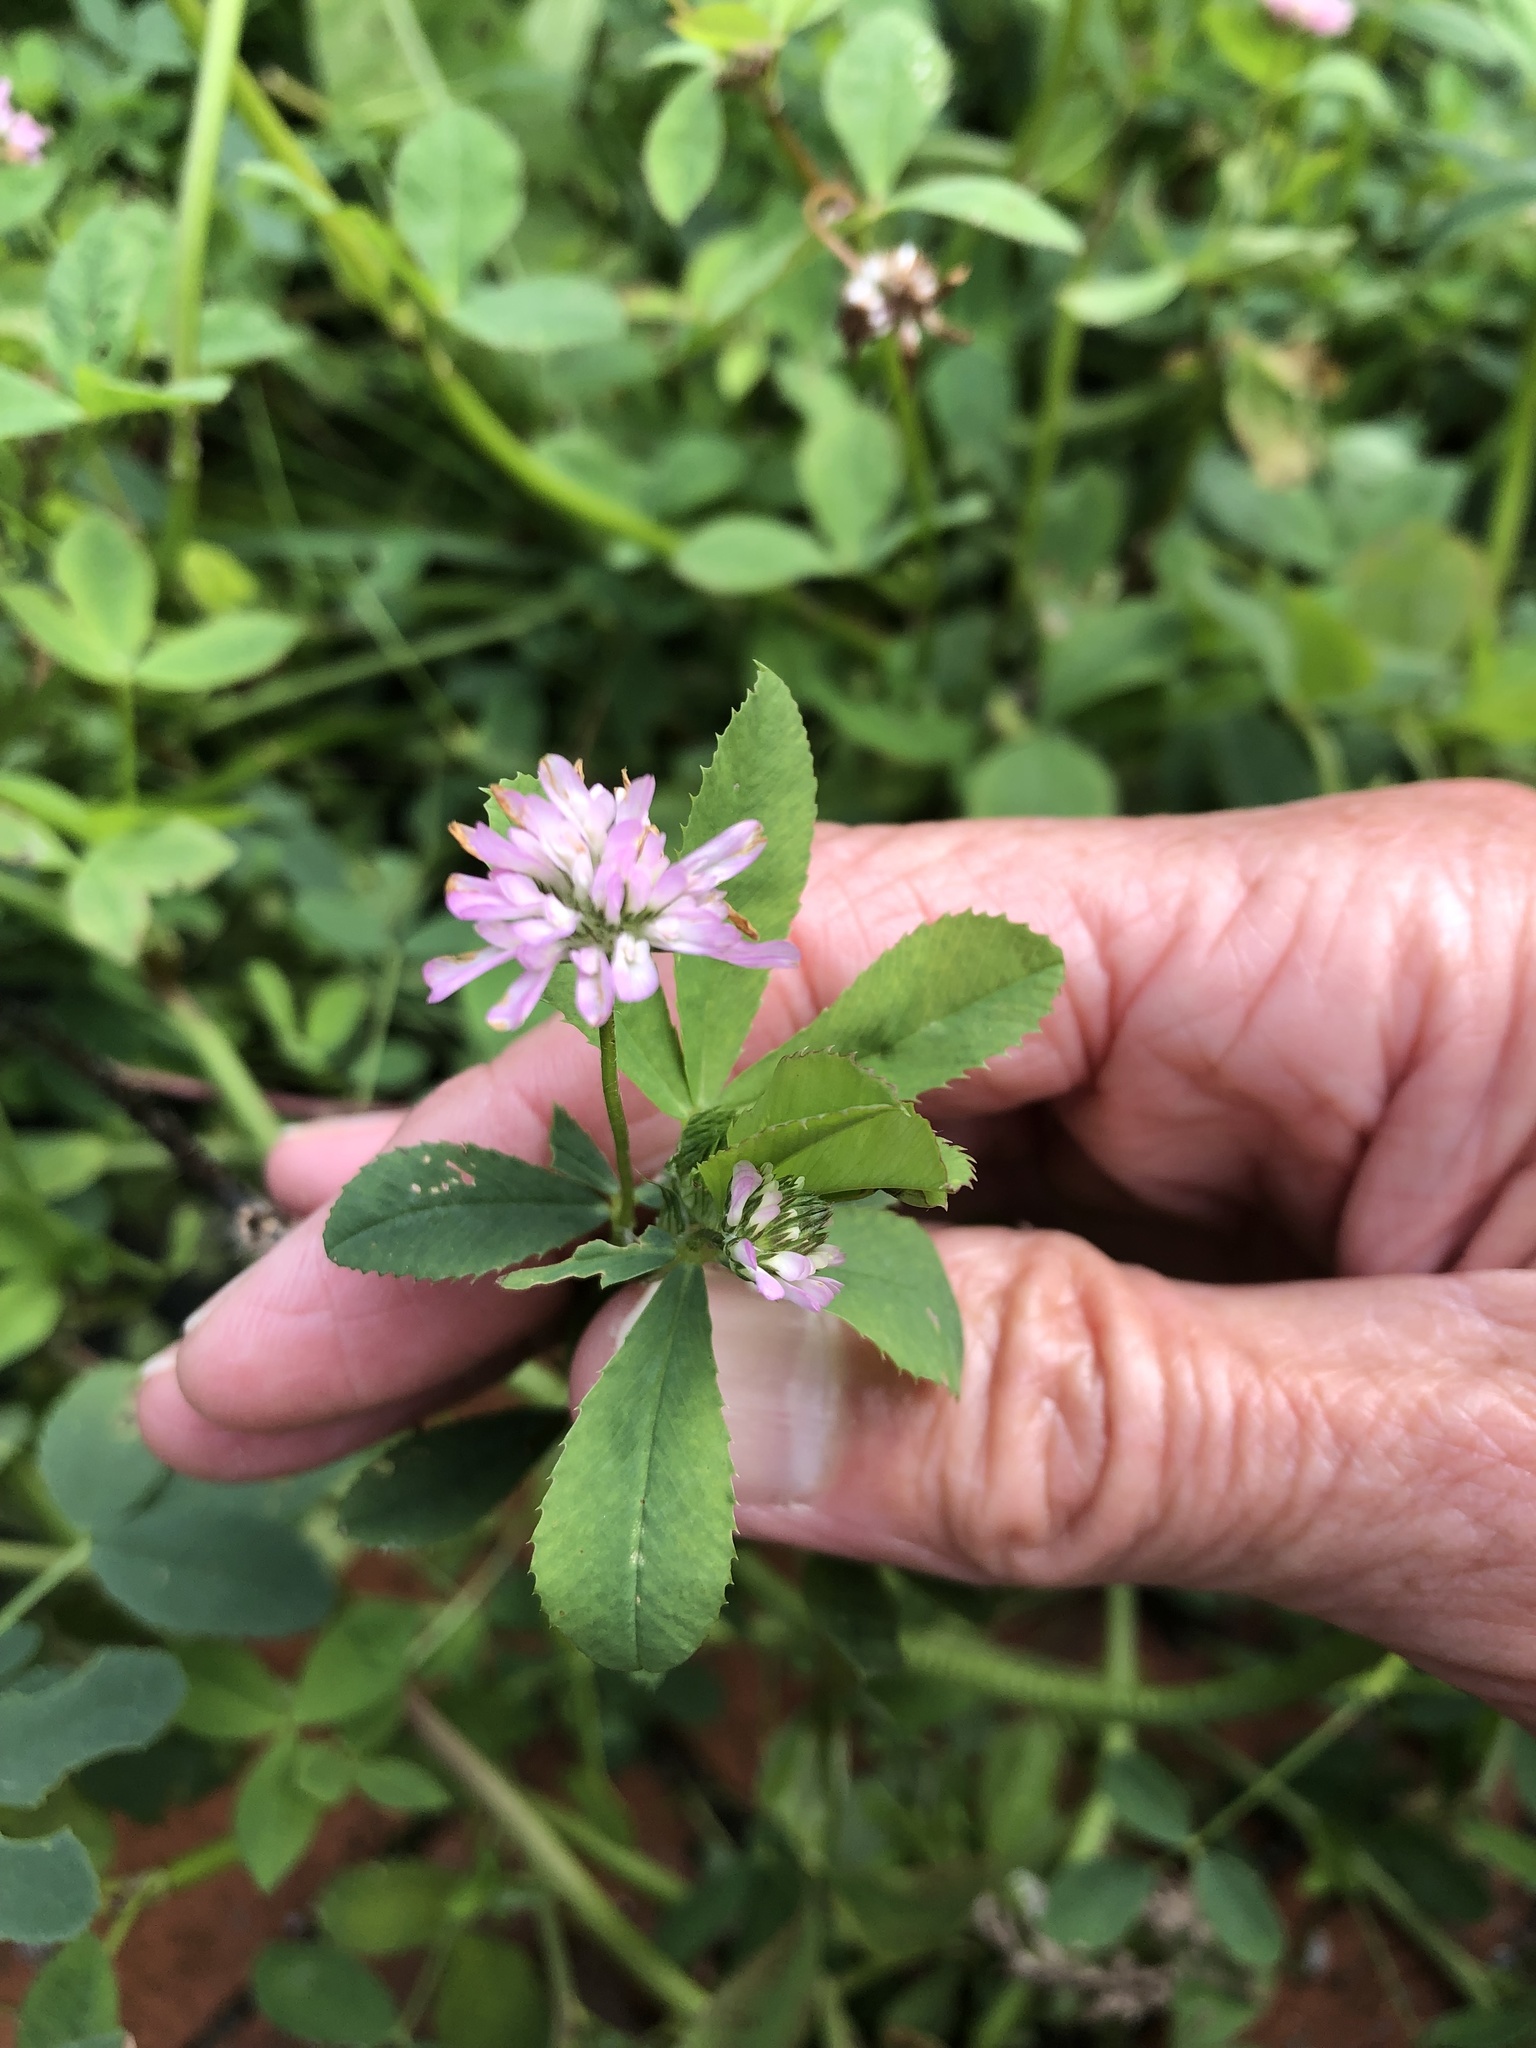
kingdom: Plantae
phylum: Tracheophyta
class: Magnoliopsida
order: Fabales
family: Fabaceae
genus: Trifolium
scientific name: Trifolium resupinatum
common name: Reversed clover
